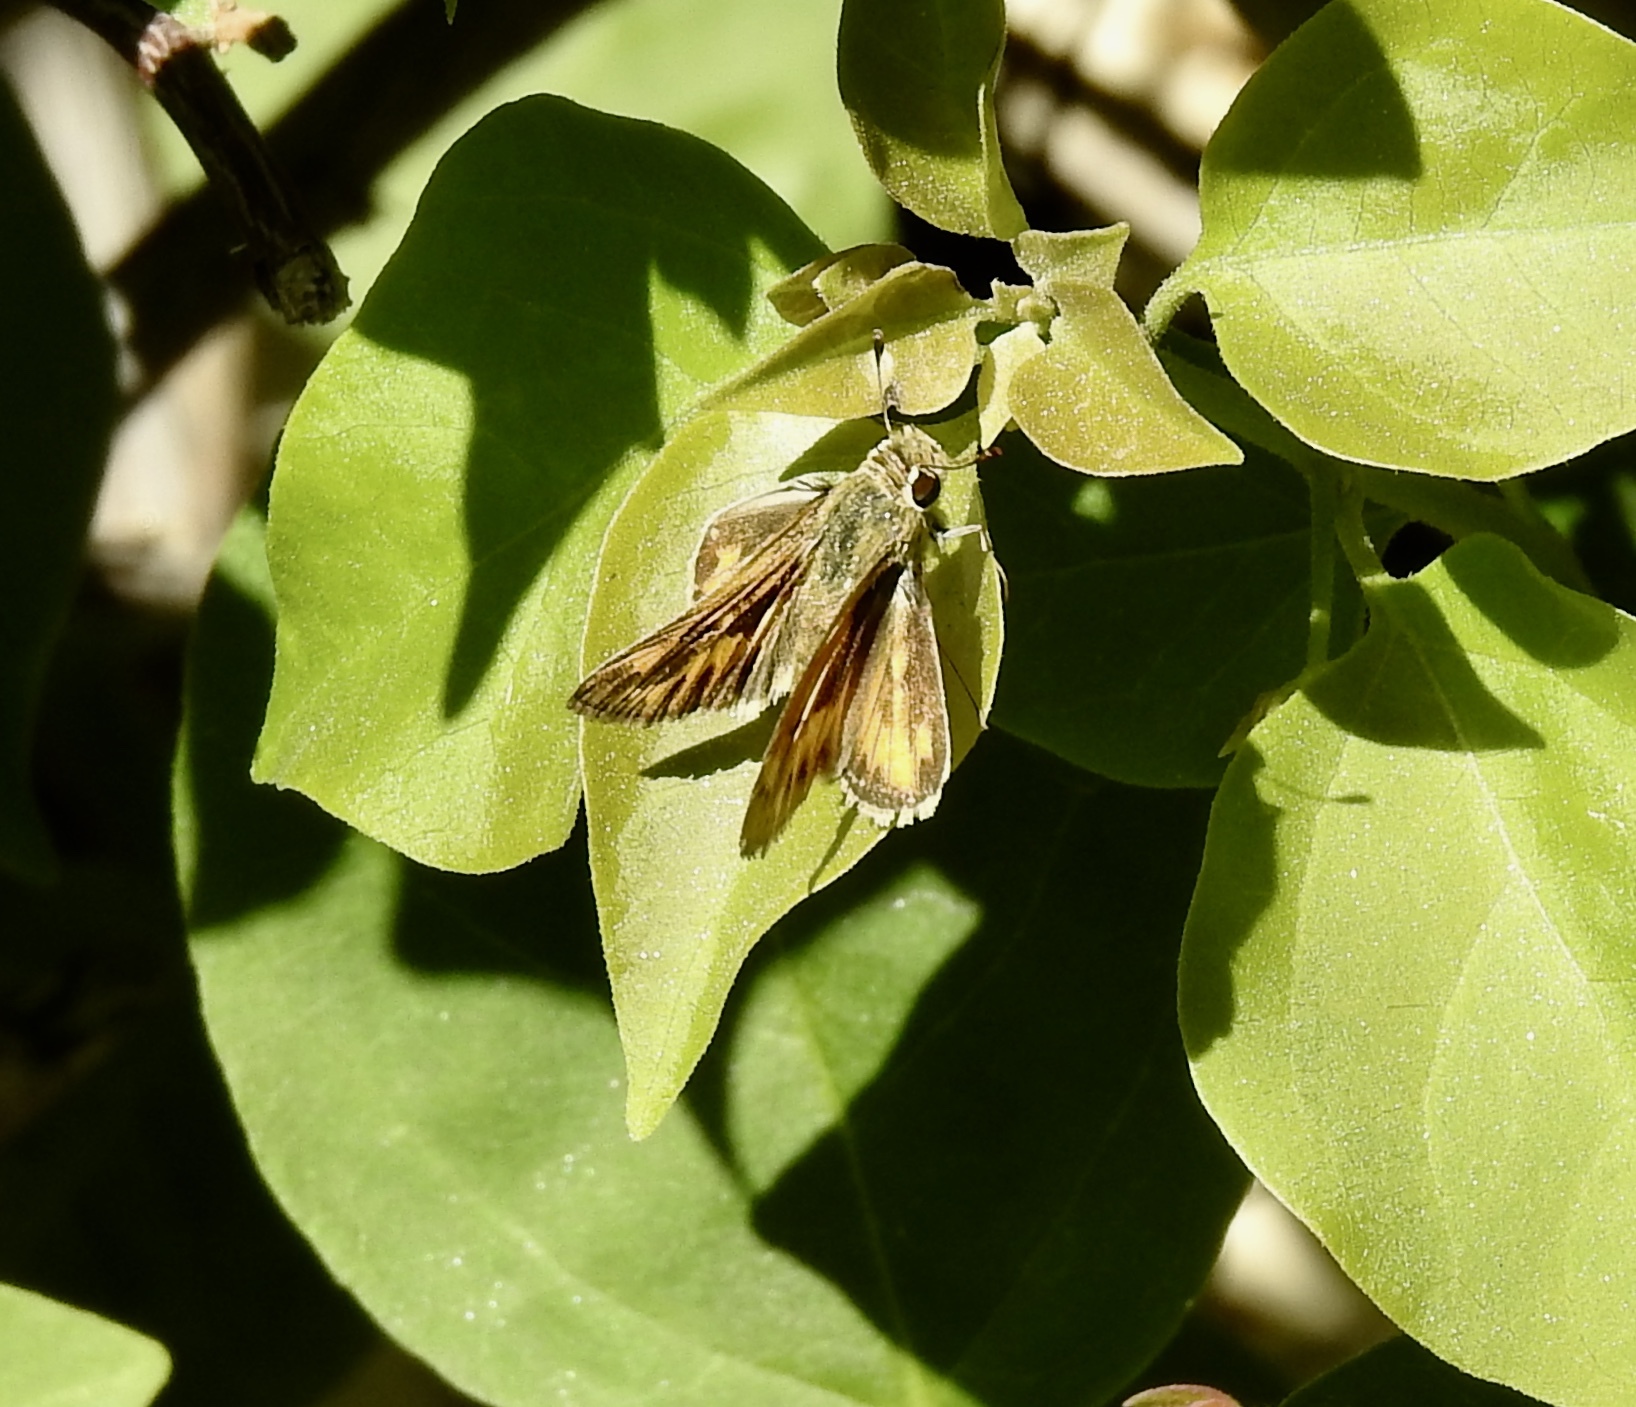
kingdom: Animalia
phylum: Arthropoda
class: Insecta
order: Lepidoptera
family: Hesperiidae
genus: Hylephila
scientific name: Hylephila phyleus
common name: Fiery skipper
